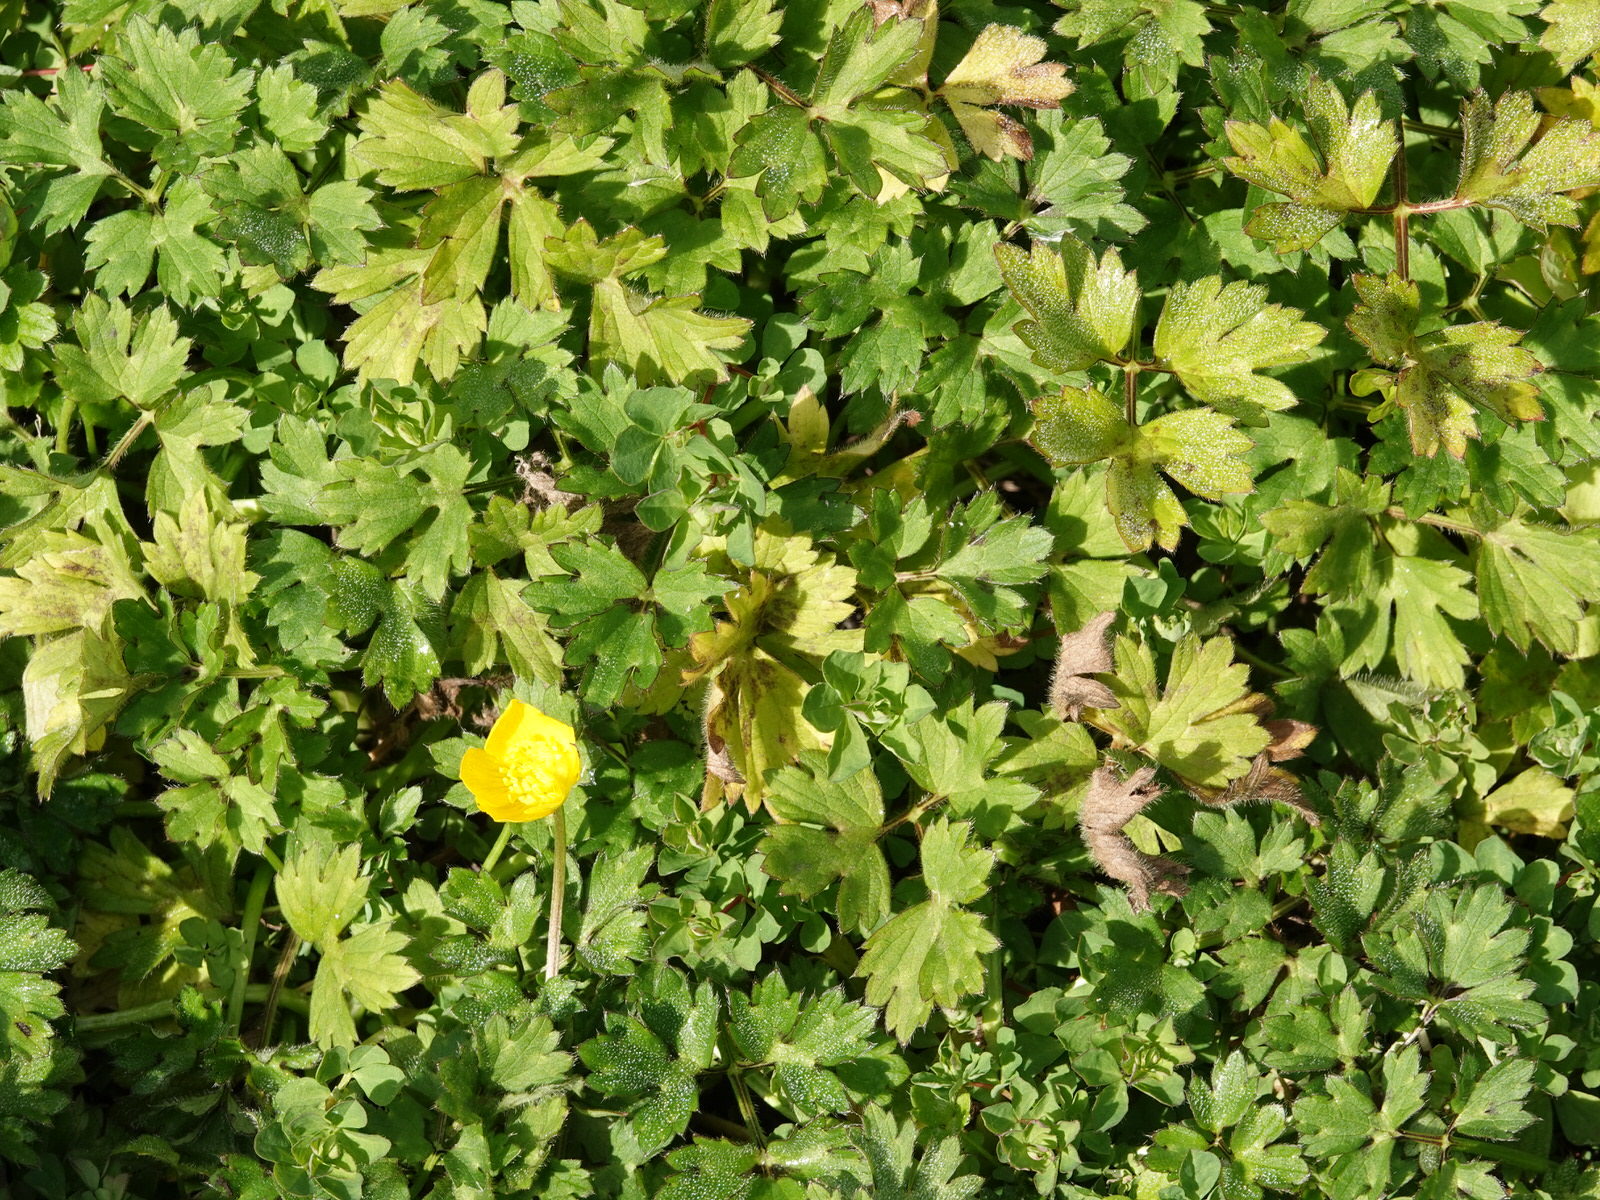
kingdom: Plantae
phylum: Tracheophyta
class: Magnoliopsida
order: Ranunculales
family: Ranunculaceae
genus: Ranunculus
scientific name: Ranunculus repens
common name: Creeping buttercup
